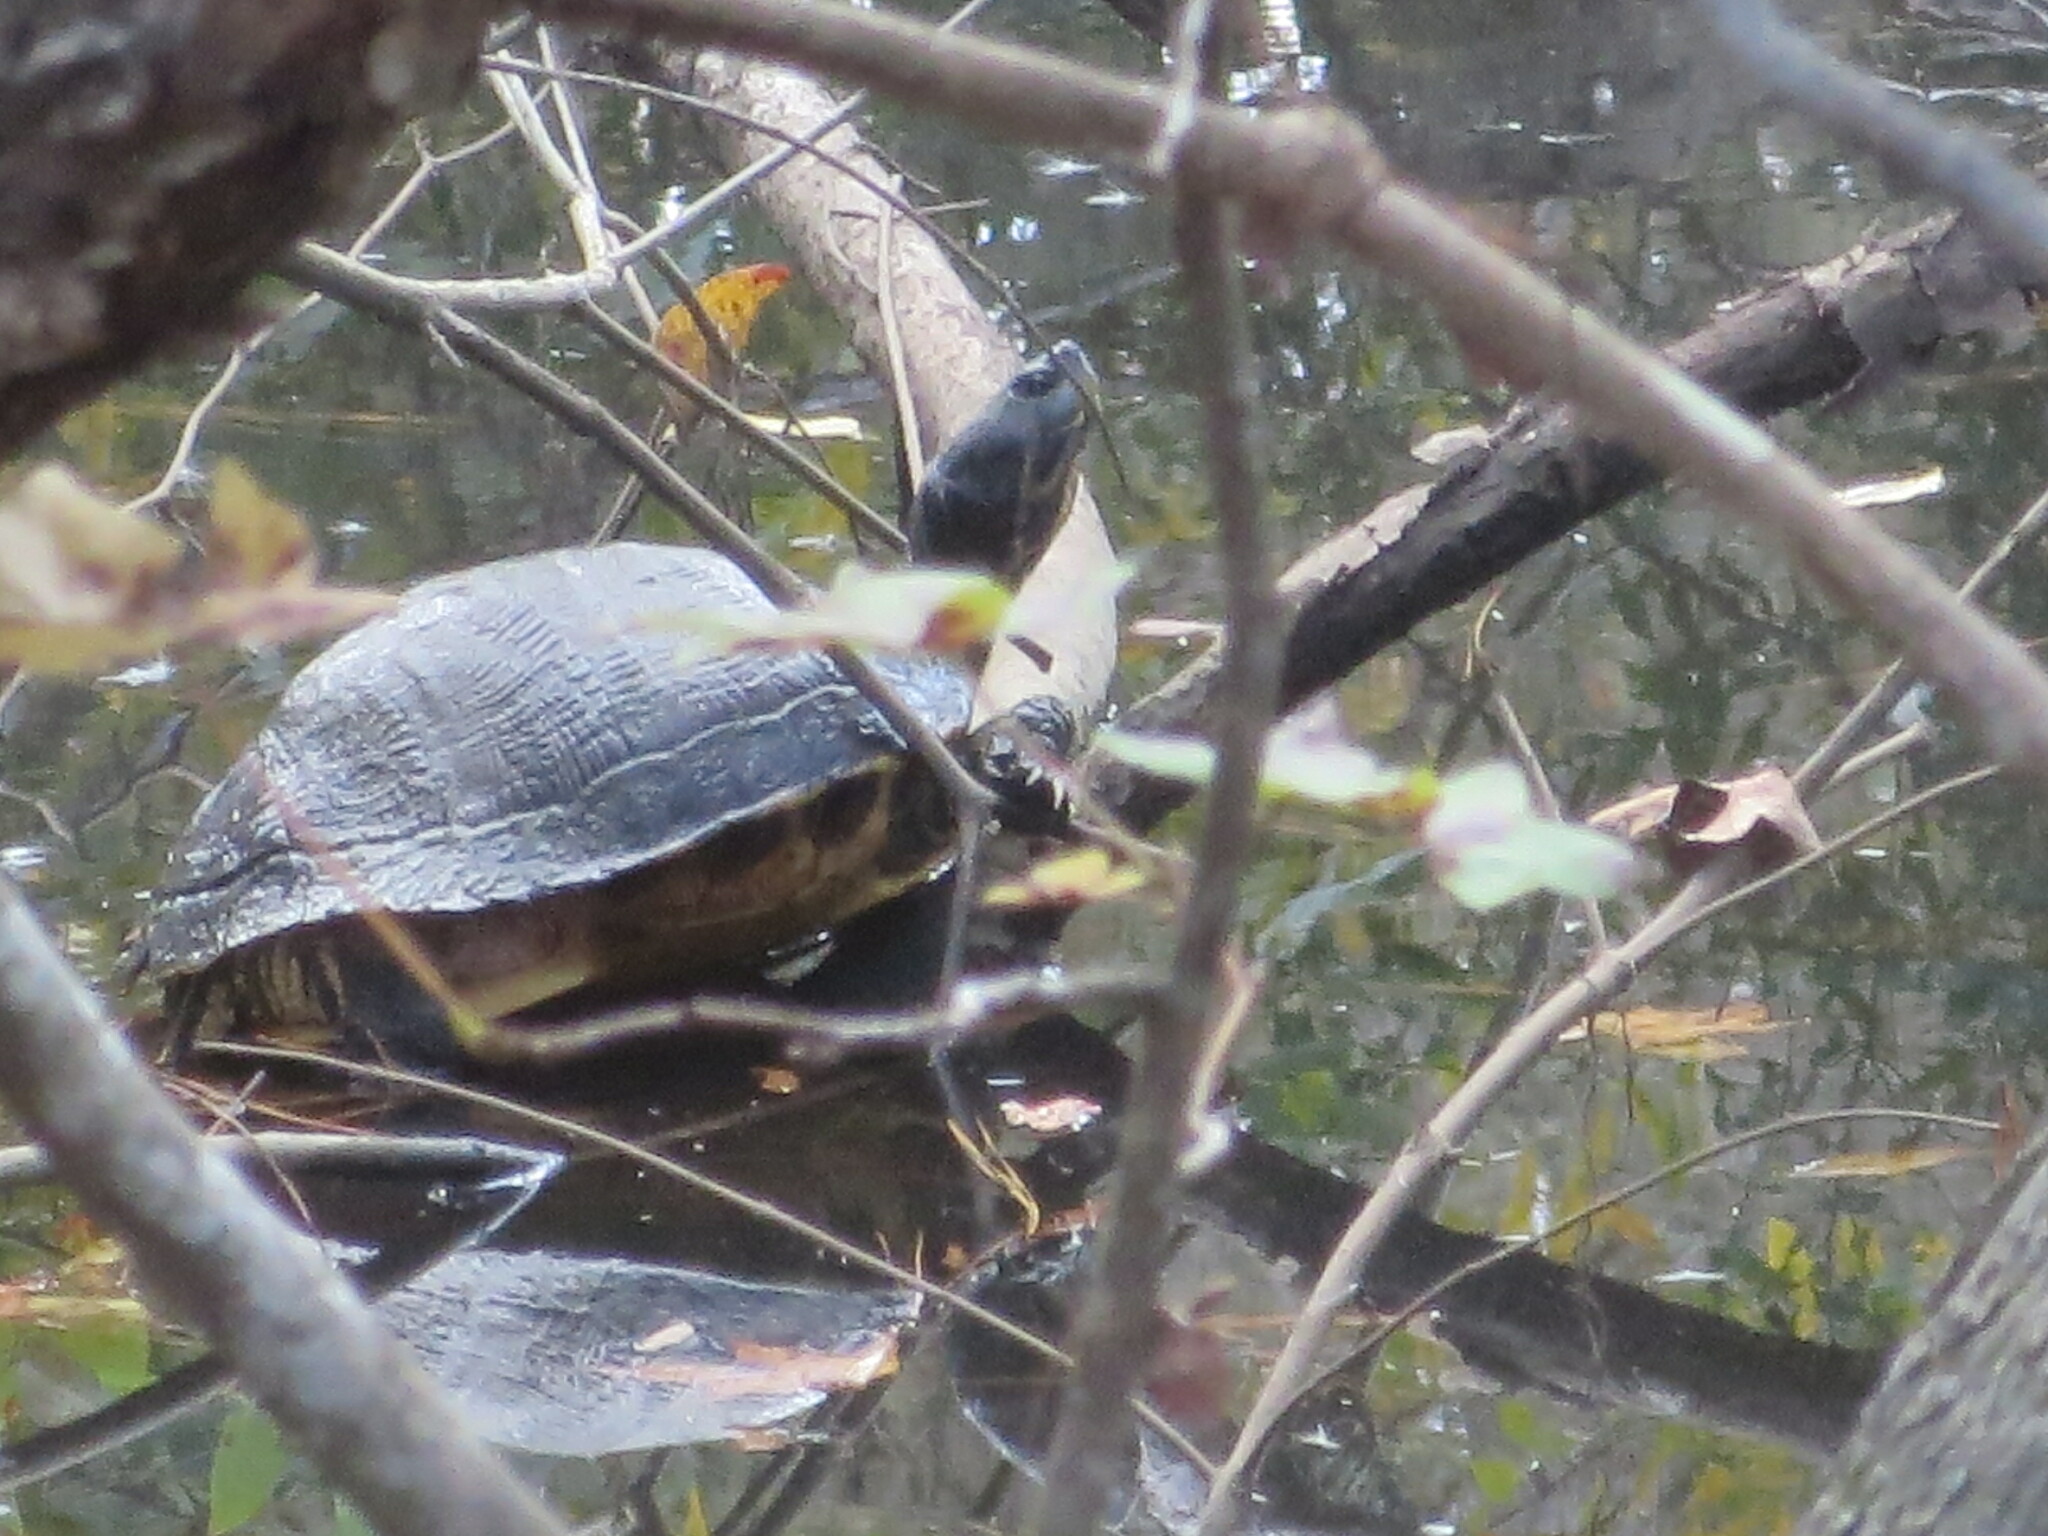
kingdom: Animalia
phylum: Chordata
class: Testudines
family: Emydidae
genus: Trachemys
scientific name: Trachemys scripta
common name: Slider
